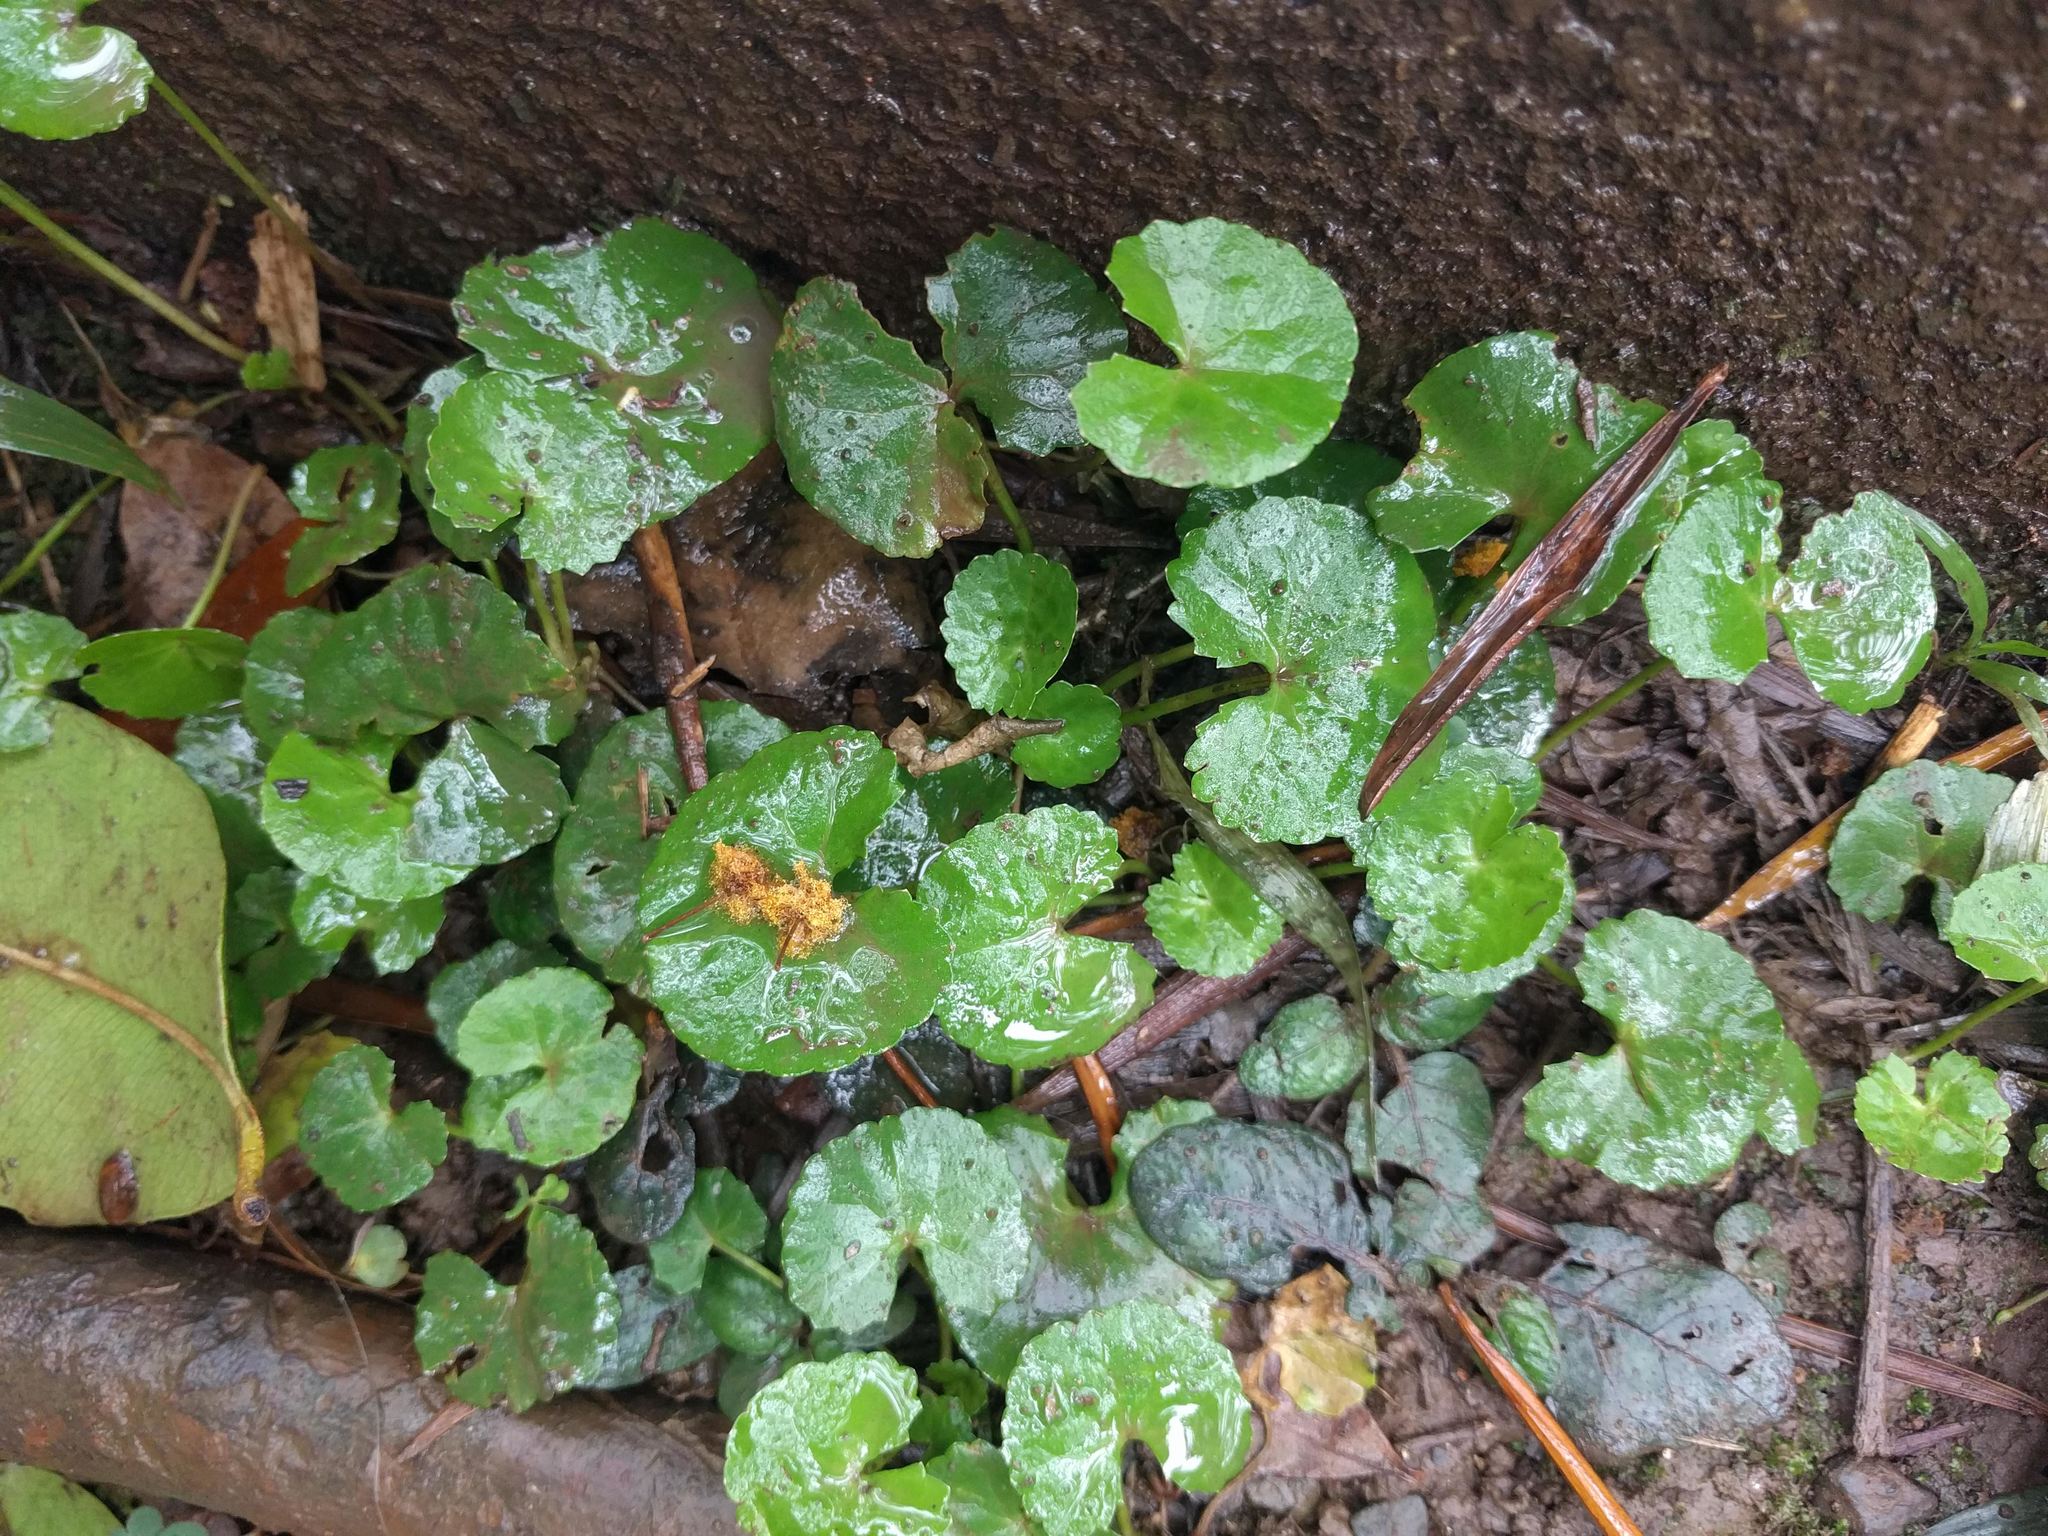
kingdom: Plantae
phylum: Tracheophyta
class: Magnoliopsida
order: Apiales
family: Apiaceae
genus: Centella
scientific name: Centella asiatica
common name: Spadeleaf
